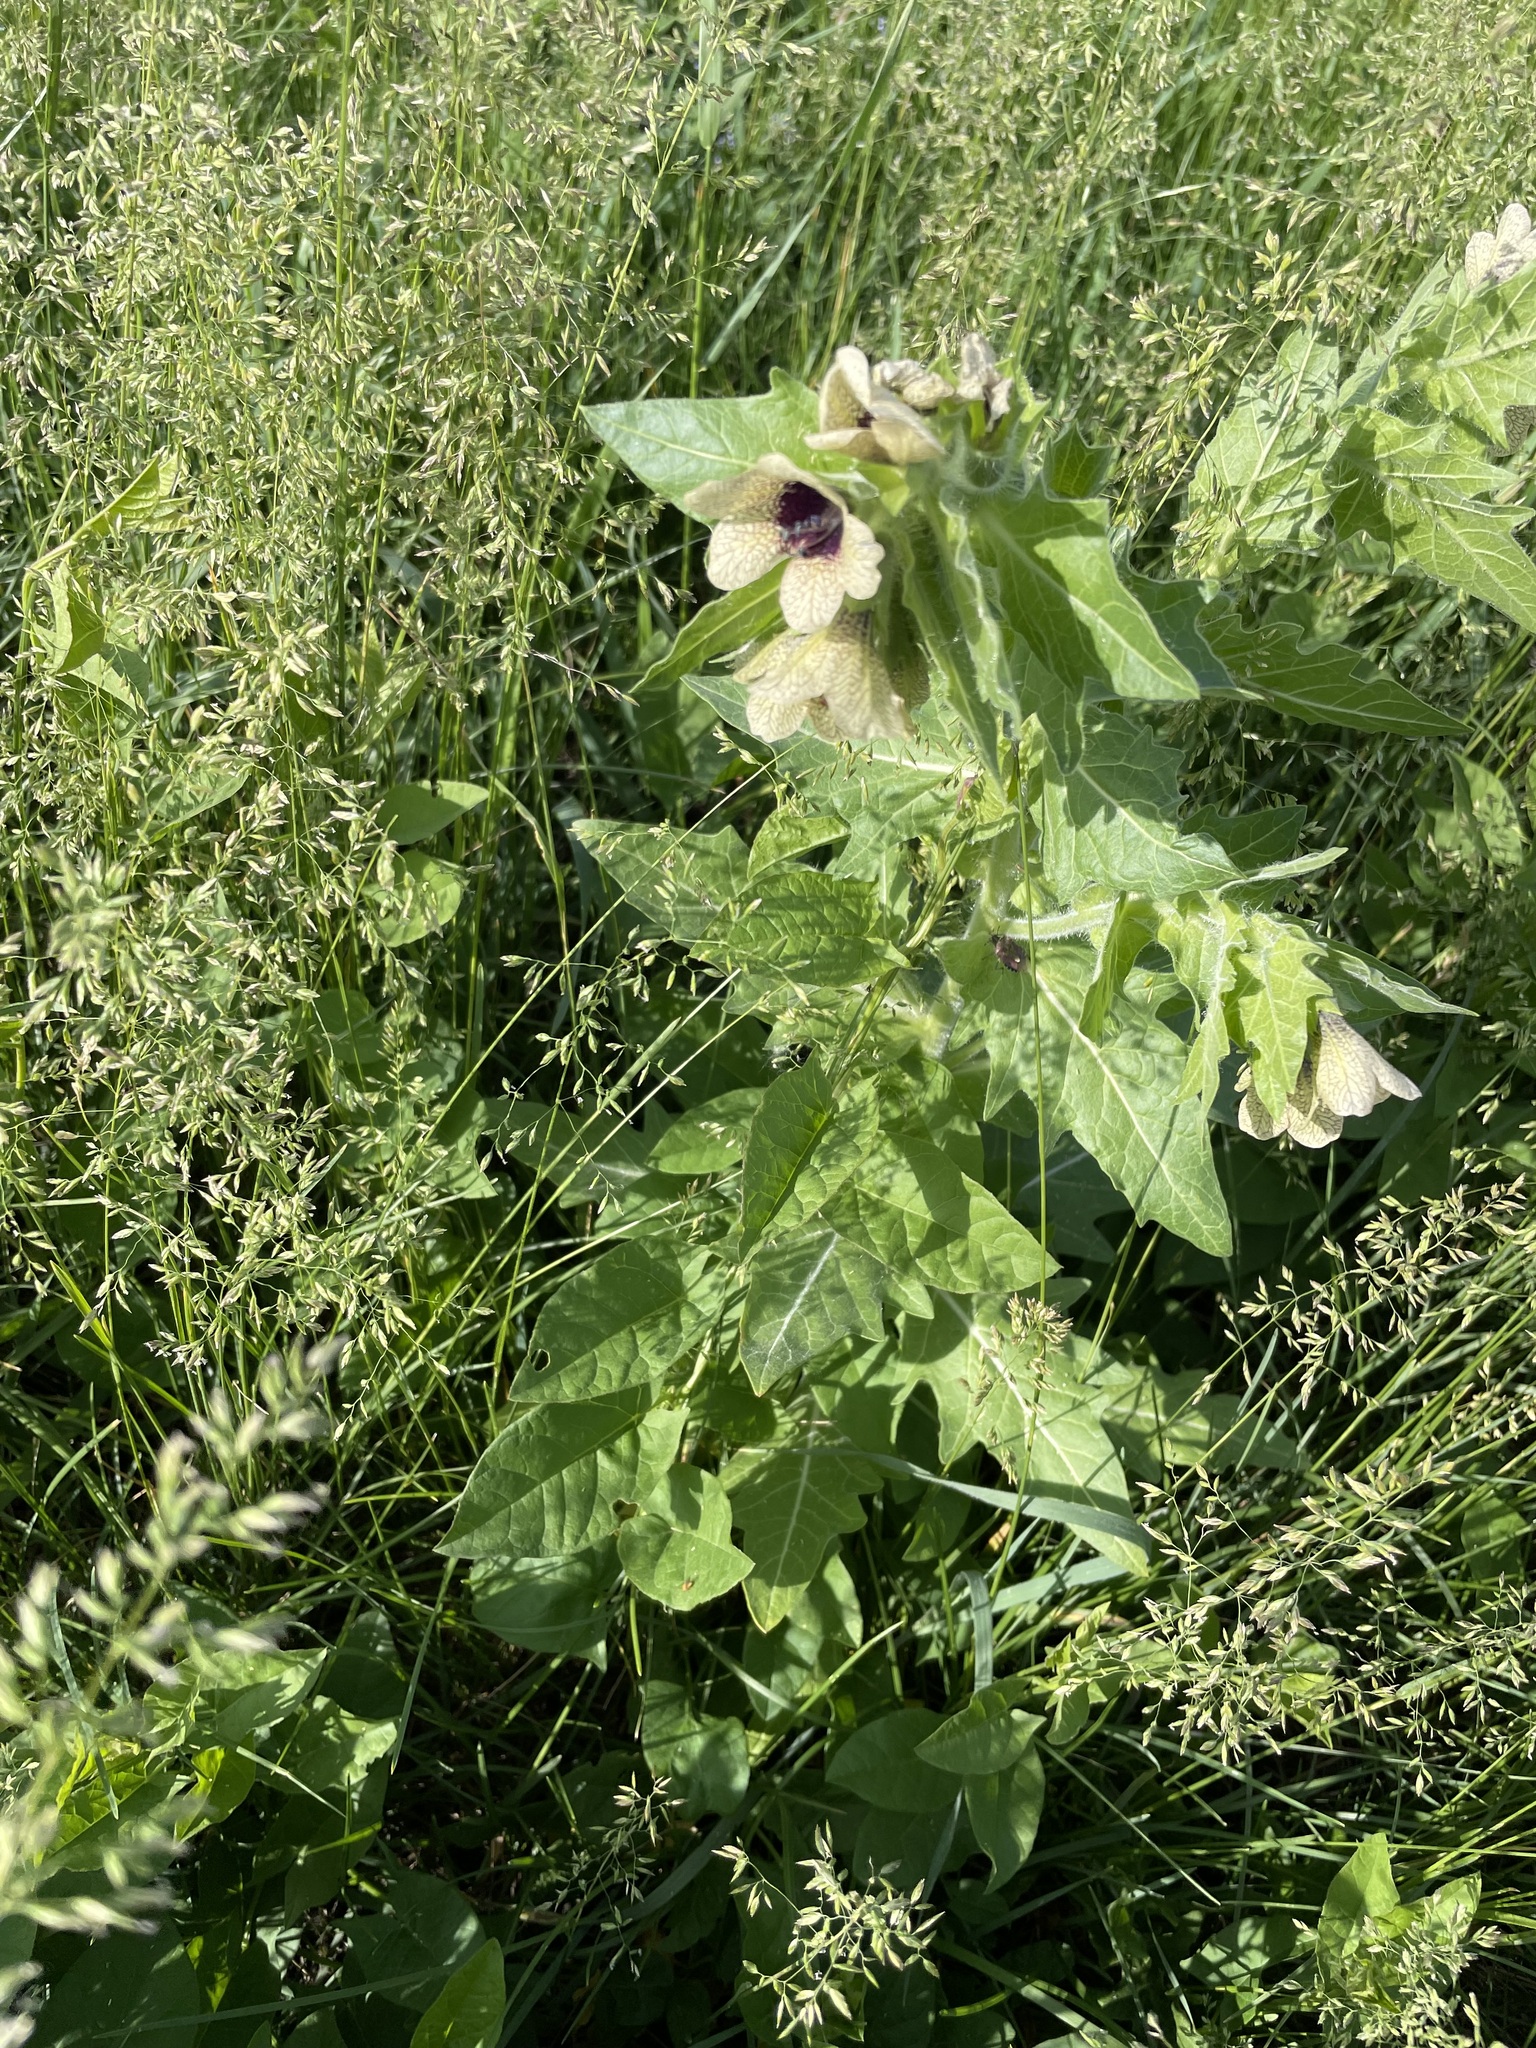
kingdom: Plantae
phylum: Tracheophyta
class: Magnoliopsida
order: Solanales
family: Solanaceae
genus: Hyoscyamus
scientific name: Hyoscyamus niger
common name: Henbane
